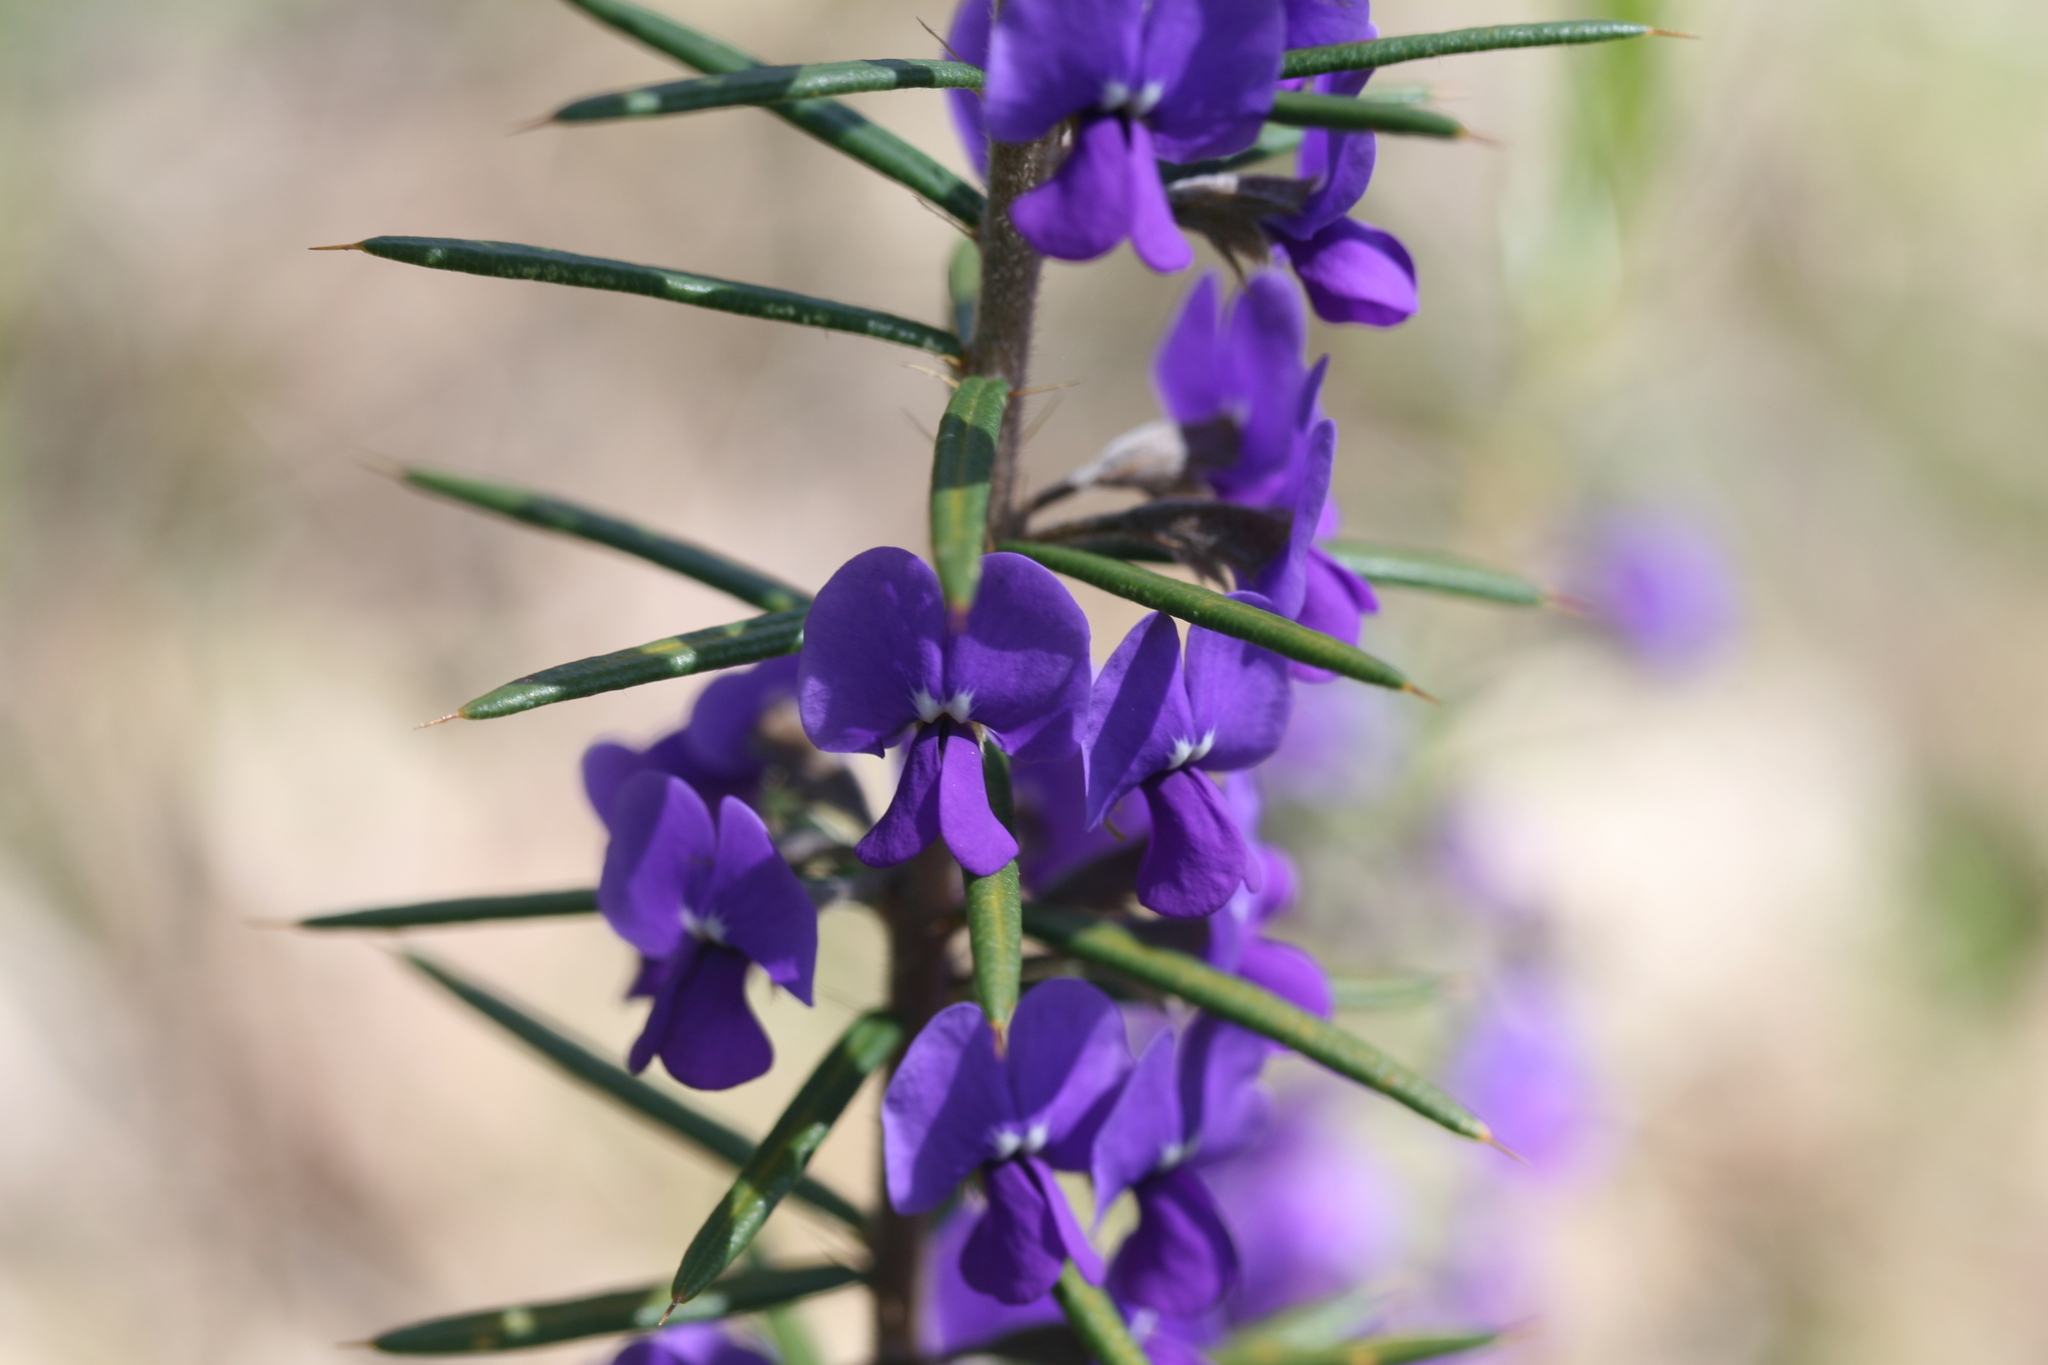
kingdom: Plantae
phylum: Tracheophyta
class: Magnoliopsida
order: Fabales
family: Fabaceae
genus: Hovea
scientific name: Hovea pungens
